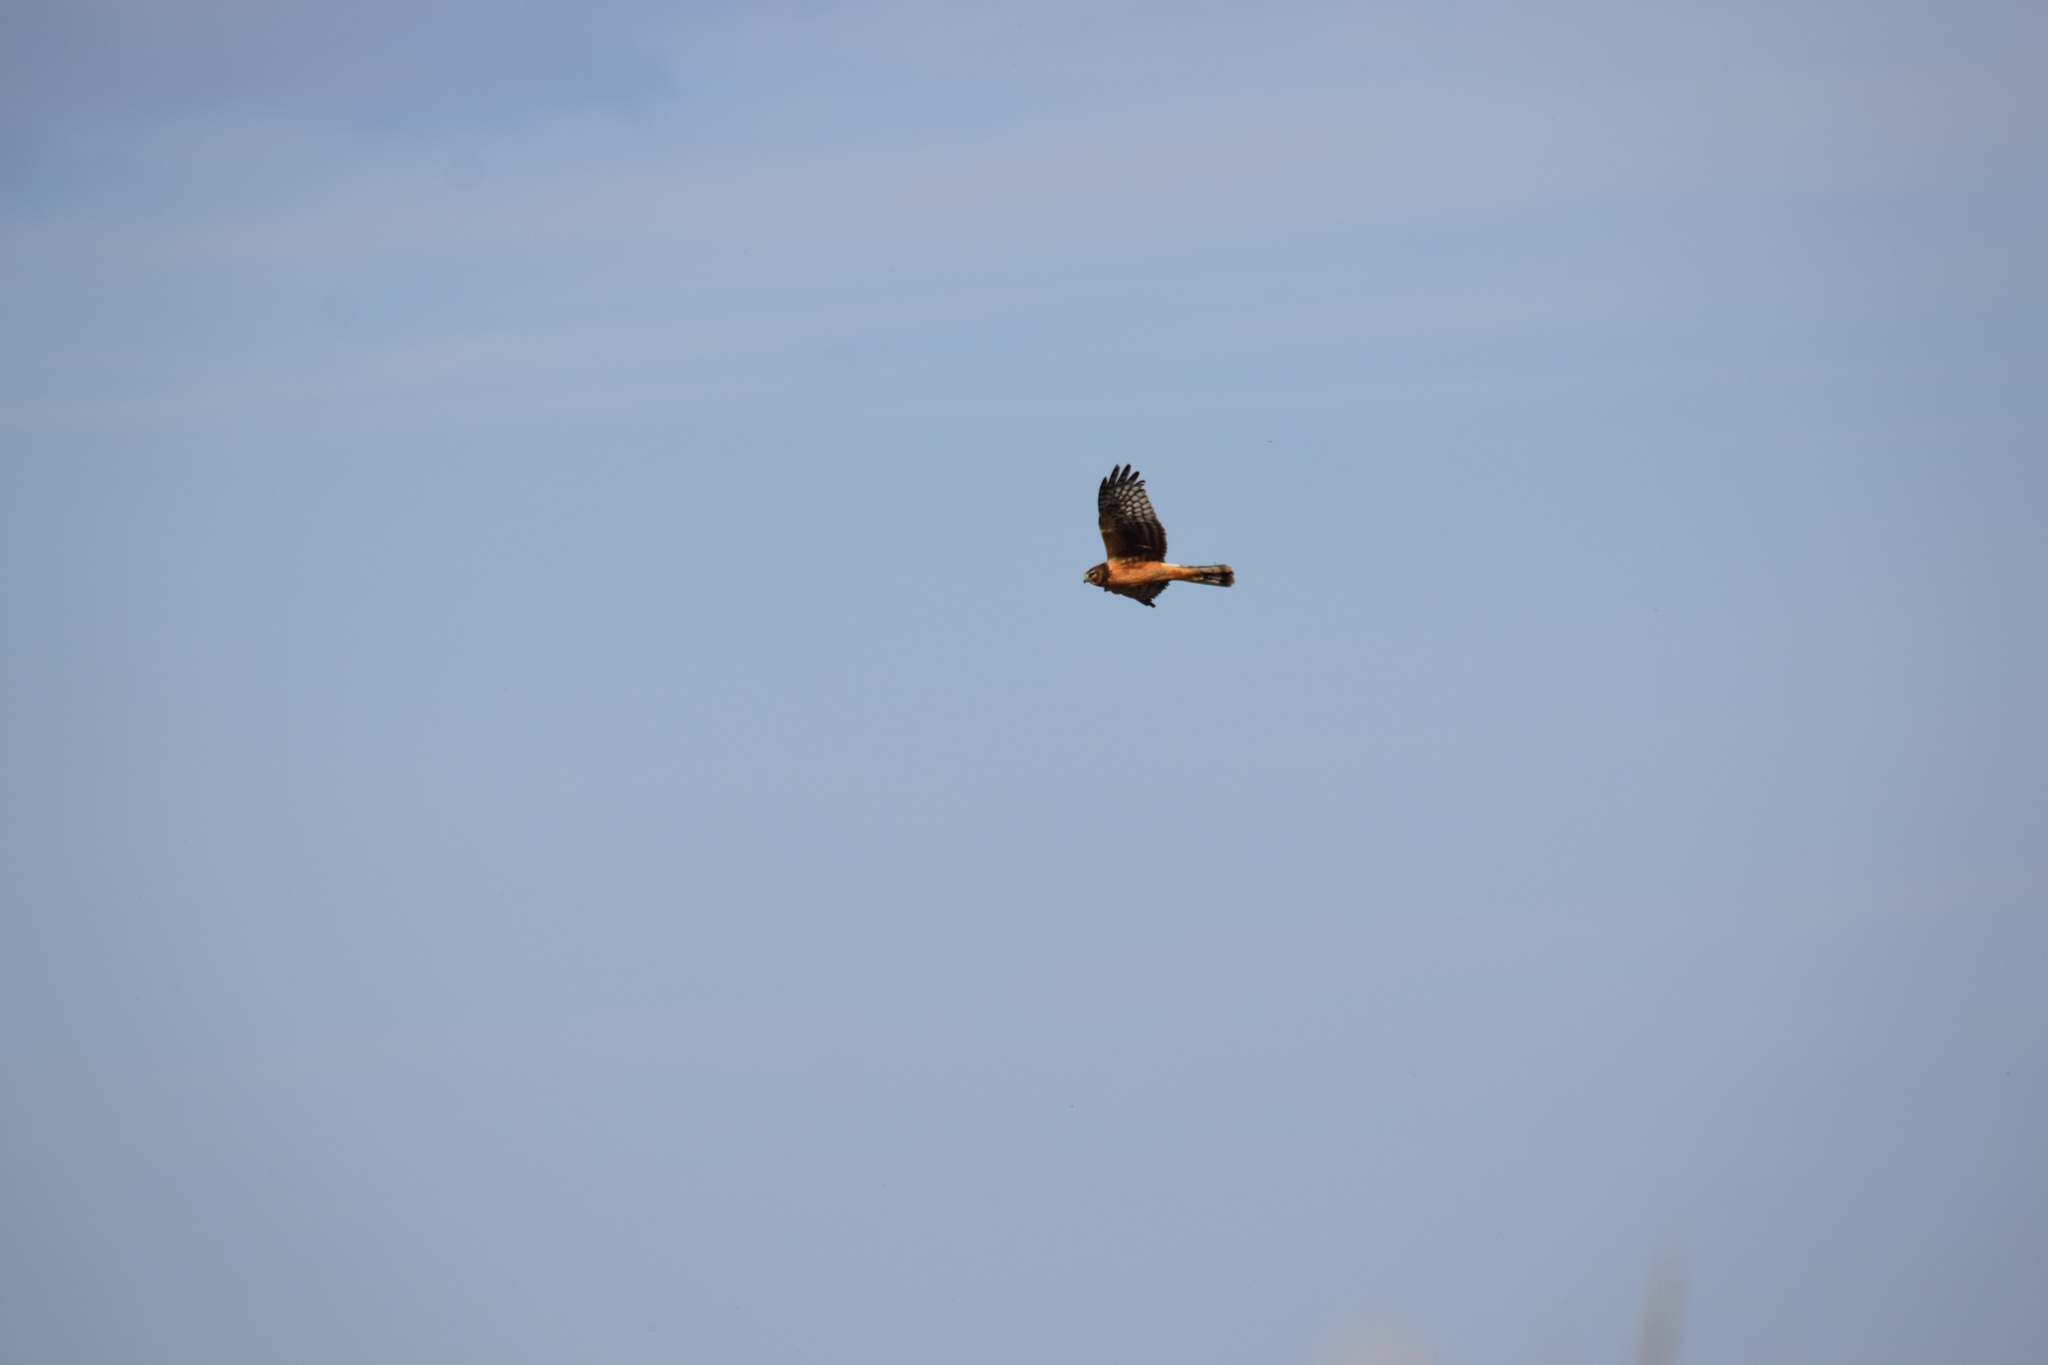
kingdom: Animalia
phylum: Chordata
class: Aves
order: Accipitriformes
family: Accipitridae
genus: Circus
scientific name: Circus cyaneus
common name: Hen harrier
